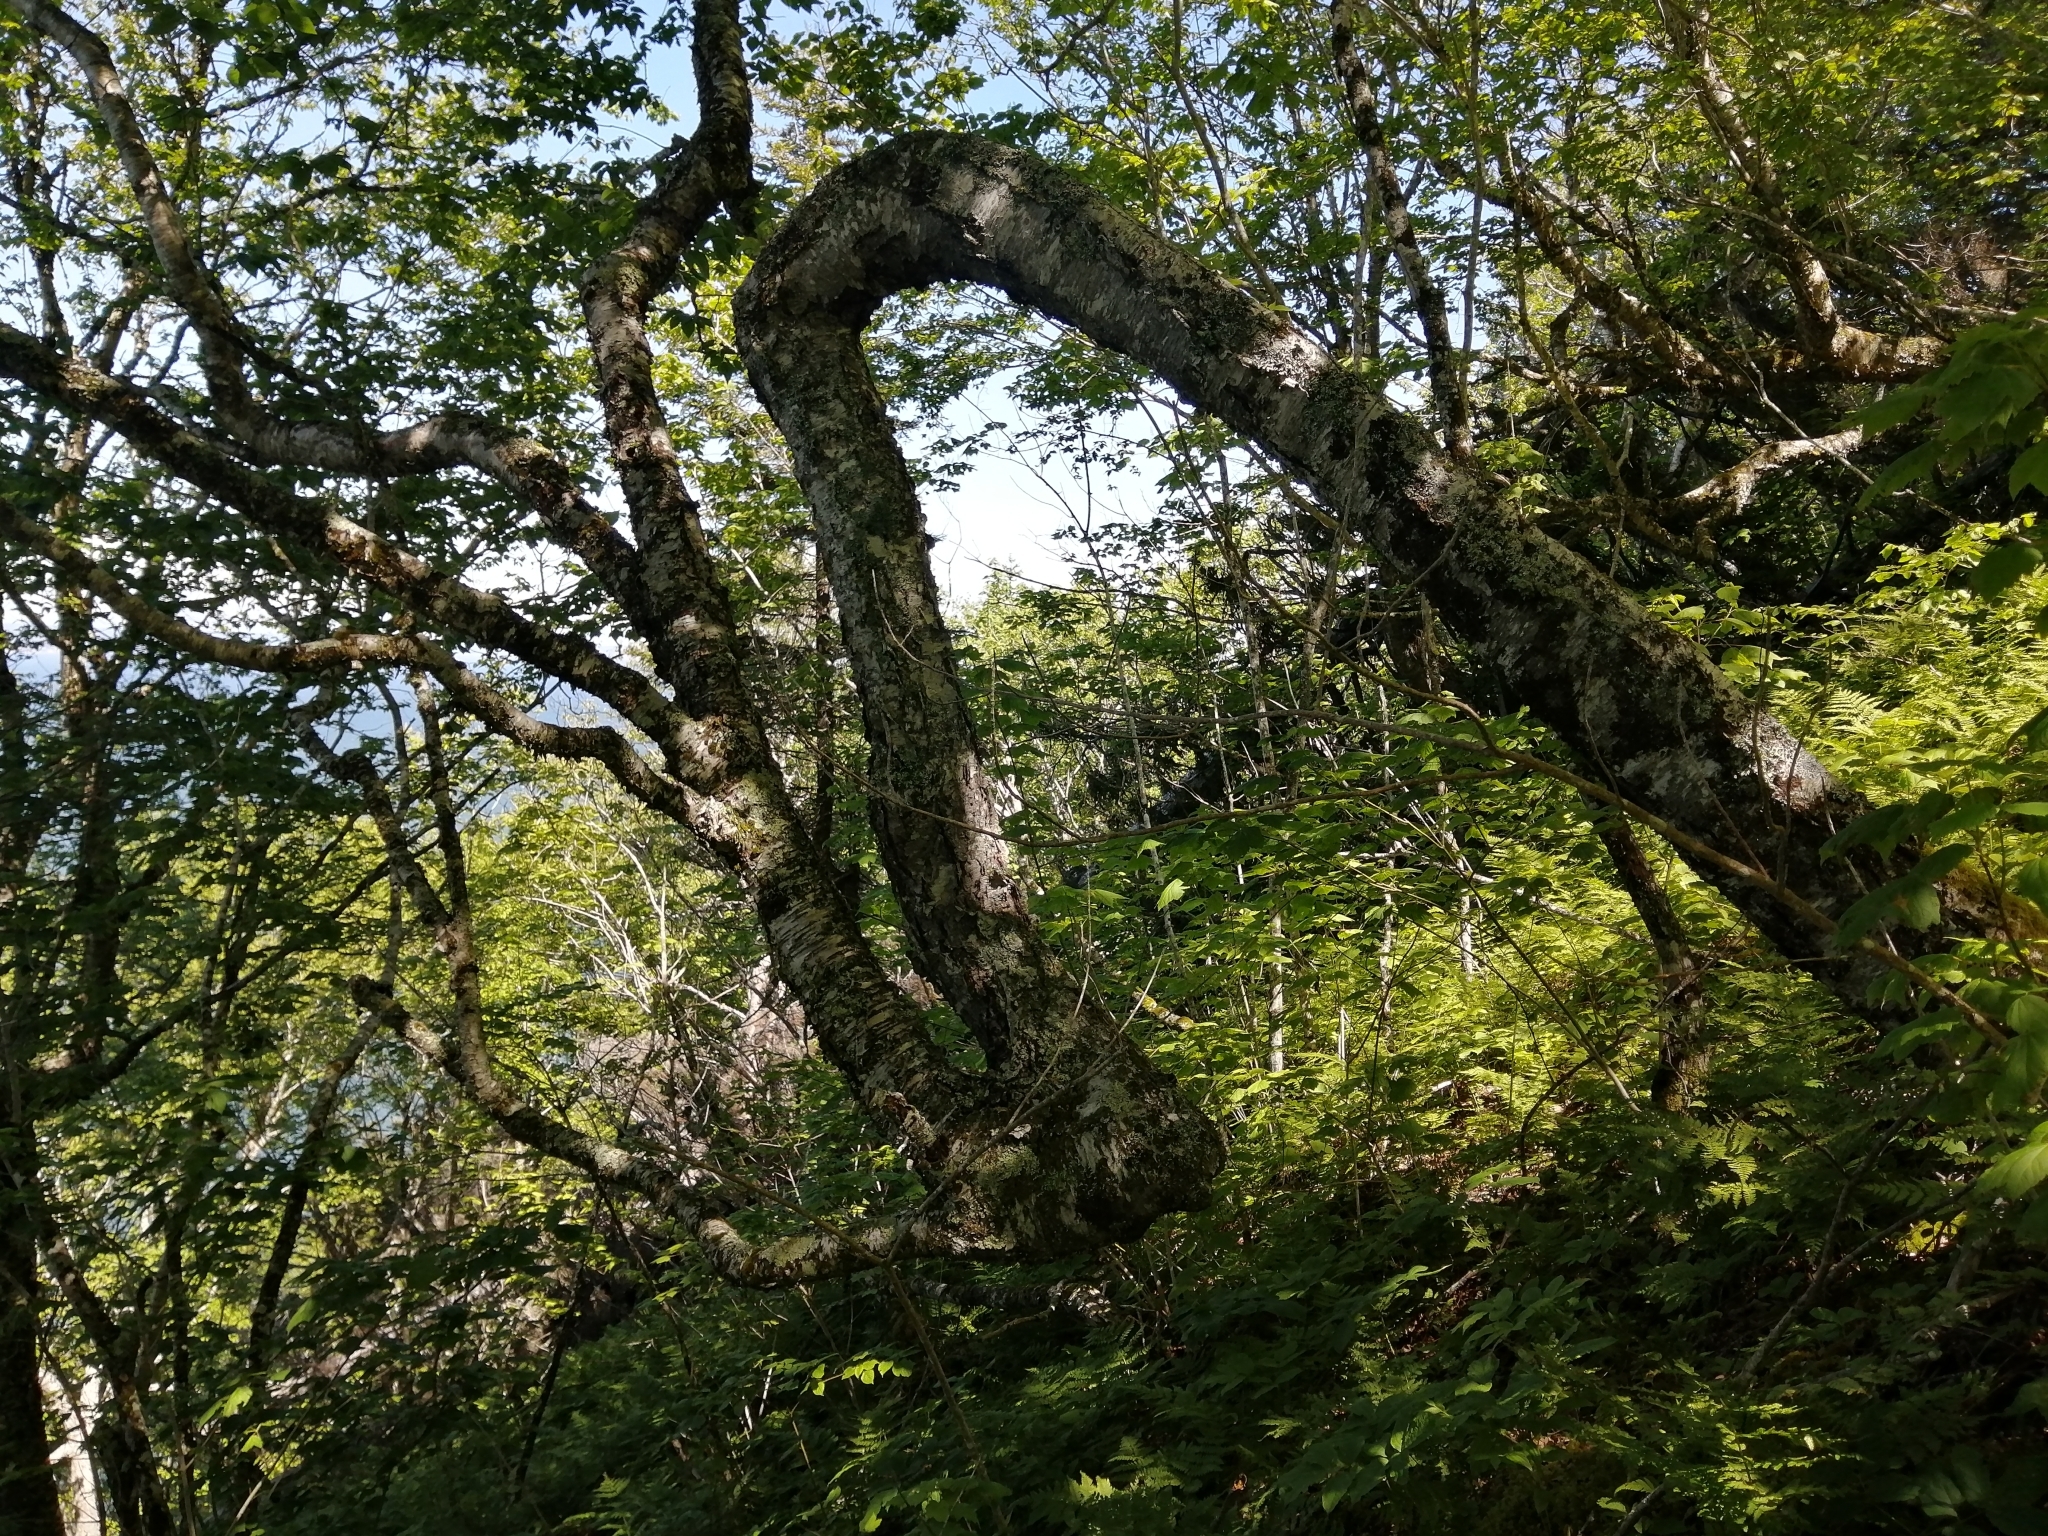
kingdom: Plantae
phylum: Tracheophyta
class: Magnoliopsida
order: Fagales
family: Betulaceae
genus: Betula
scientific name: Betula alleghaniensis
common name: Yellow birch
